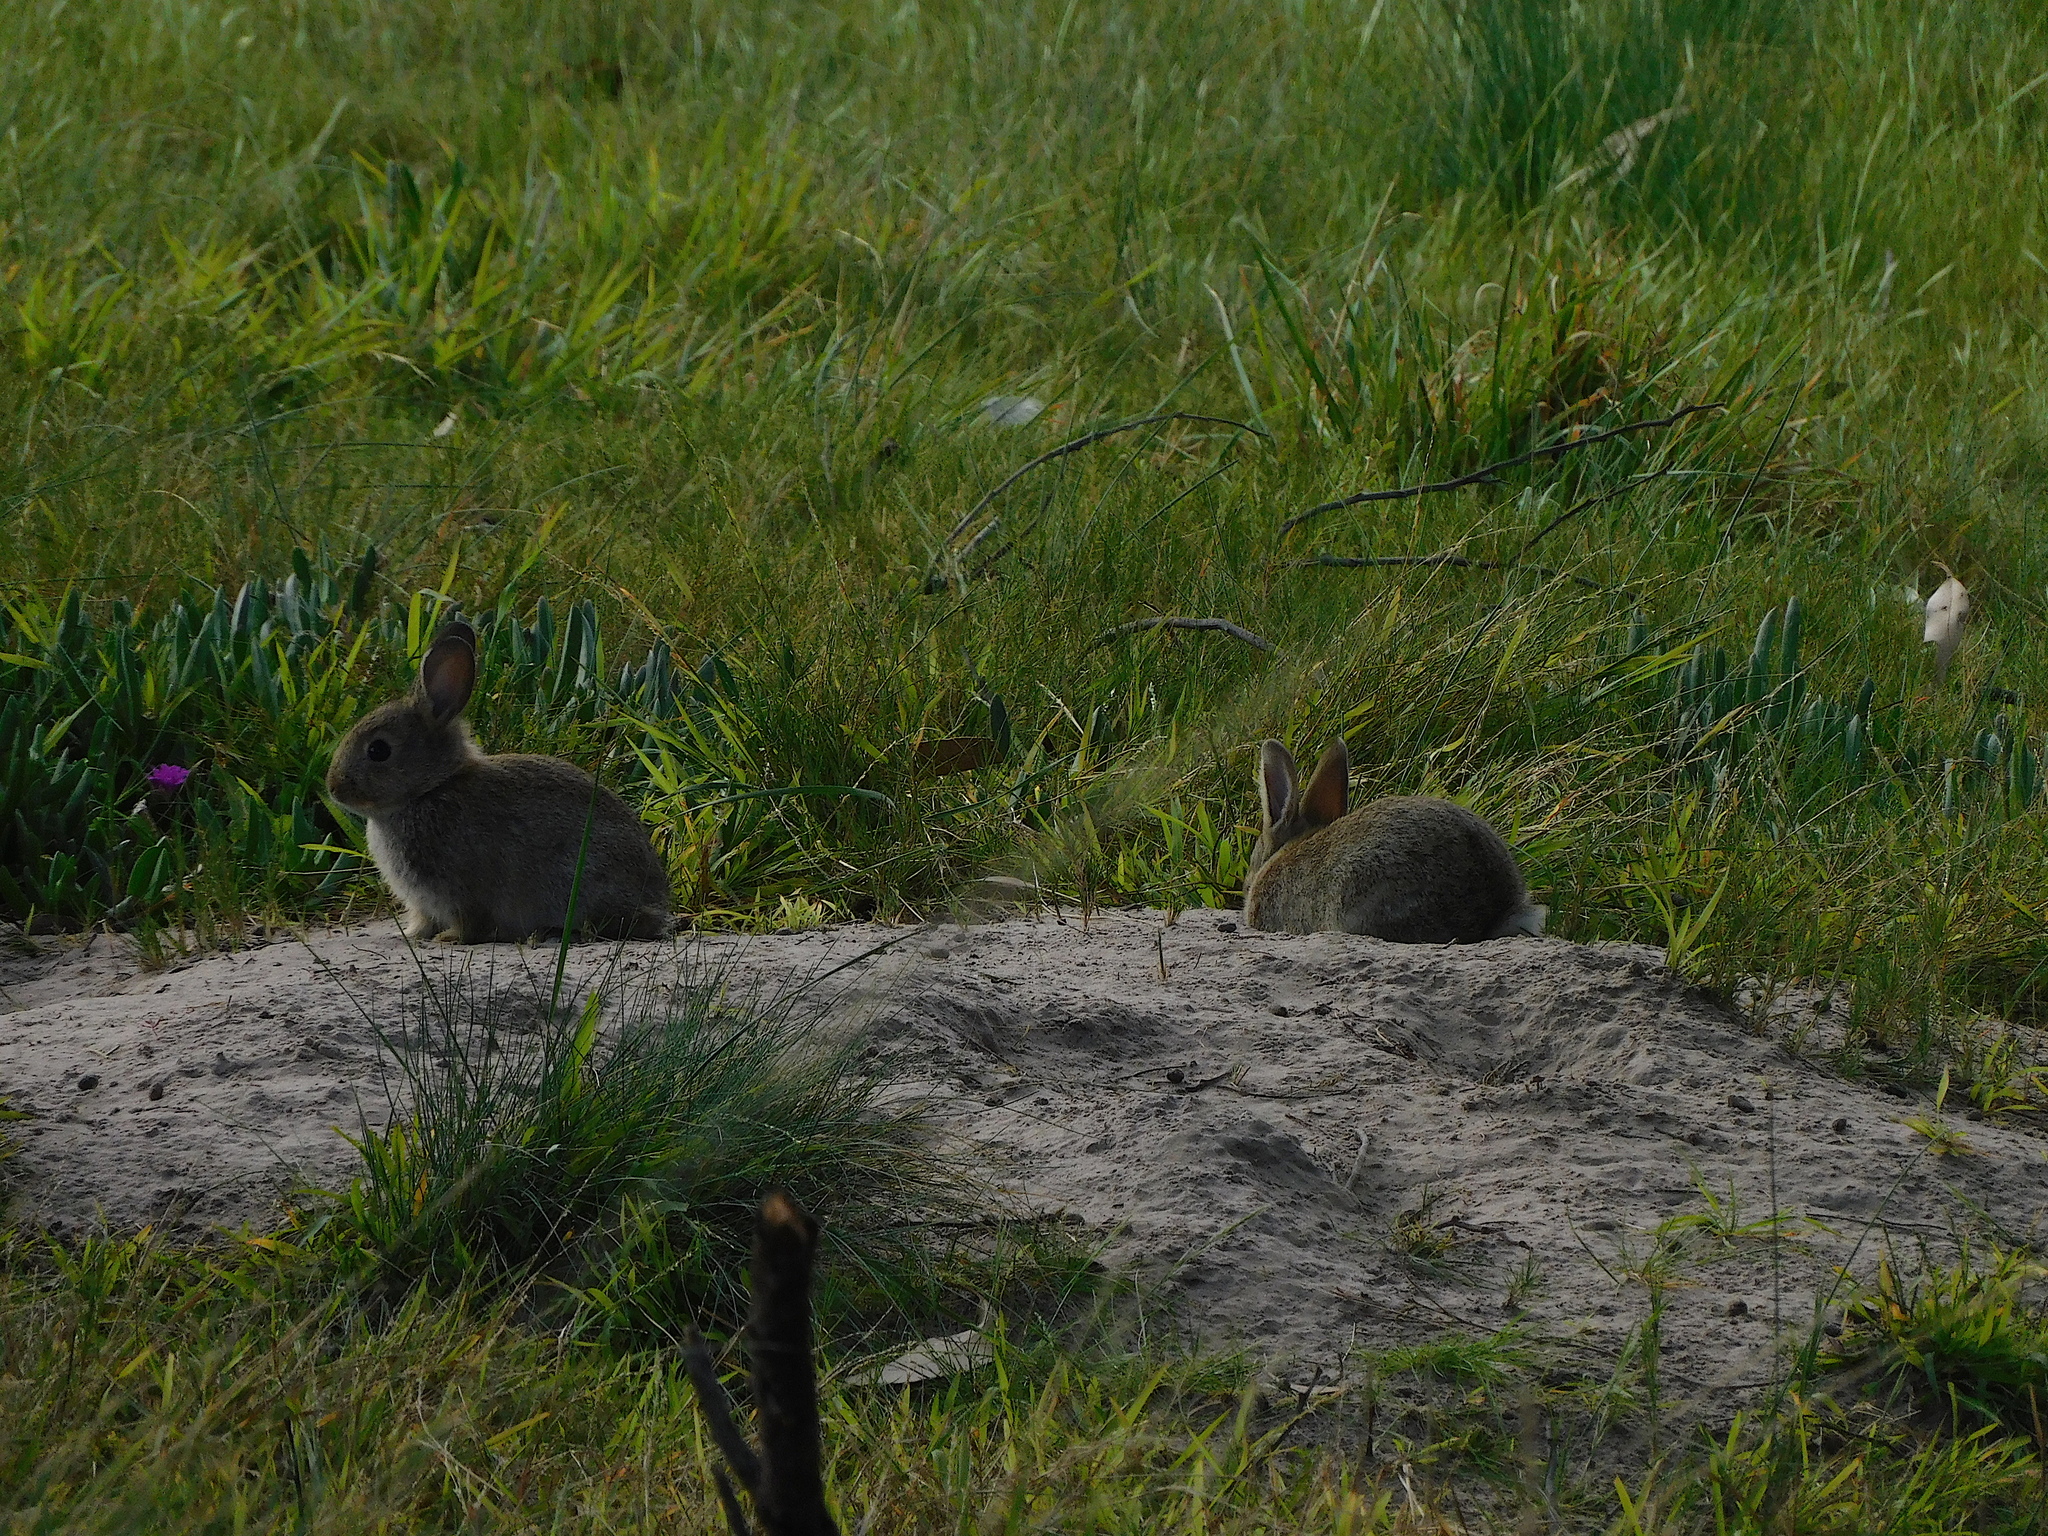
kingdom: Animalia
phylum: Chordata
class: Mammalia
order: Lagomorpha
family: Leporidae
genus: Oryctolagus
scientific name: Oryctolagus cuniculus
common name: European rabbit
